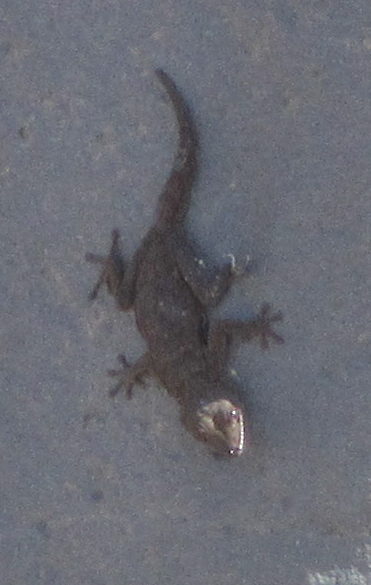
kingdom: Animalia
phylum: Chordata
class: Squamata
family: Gekkonidae
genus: Rhoptropus
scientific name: Rhoptropus bradfieldi
